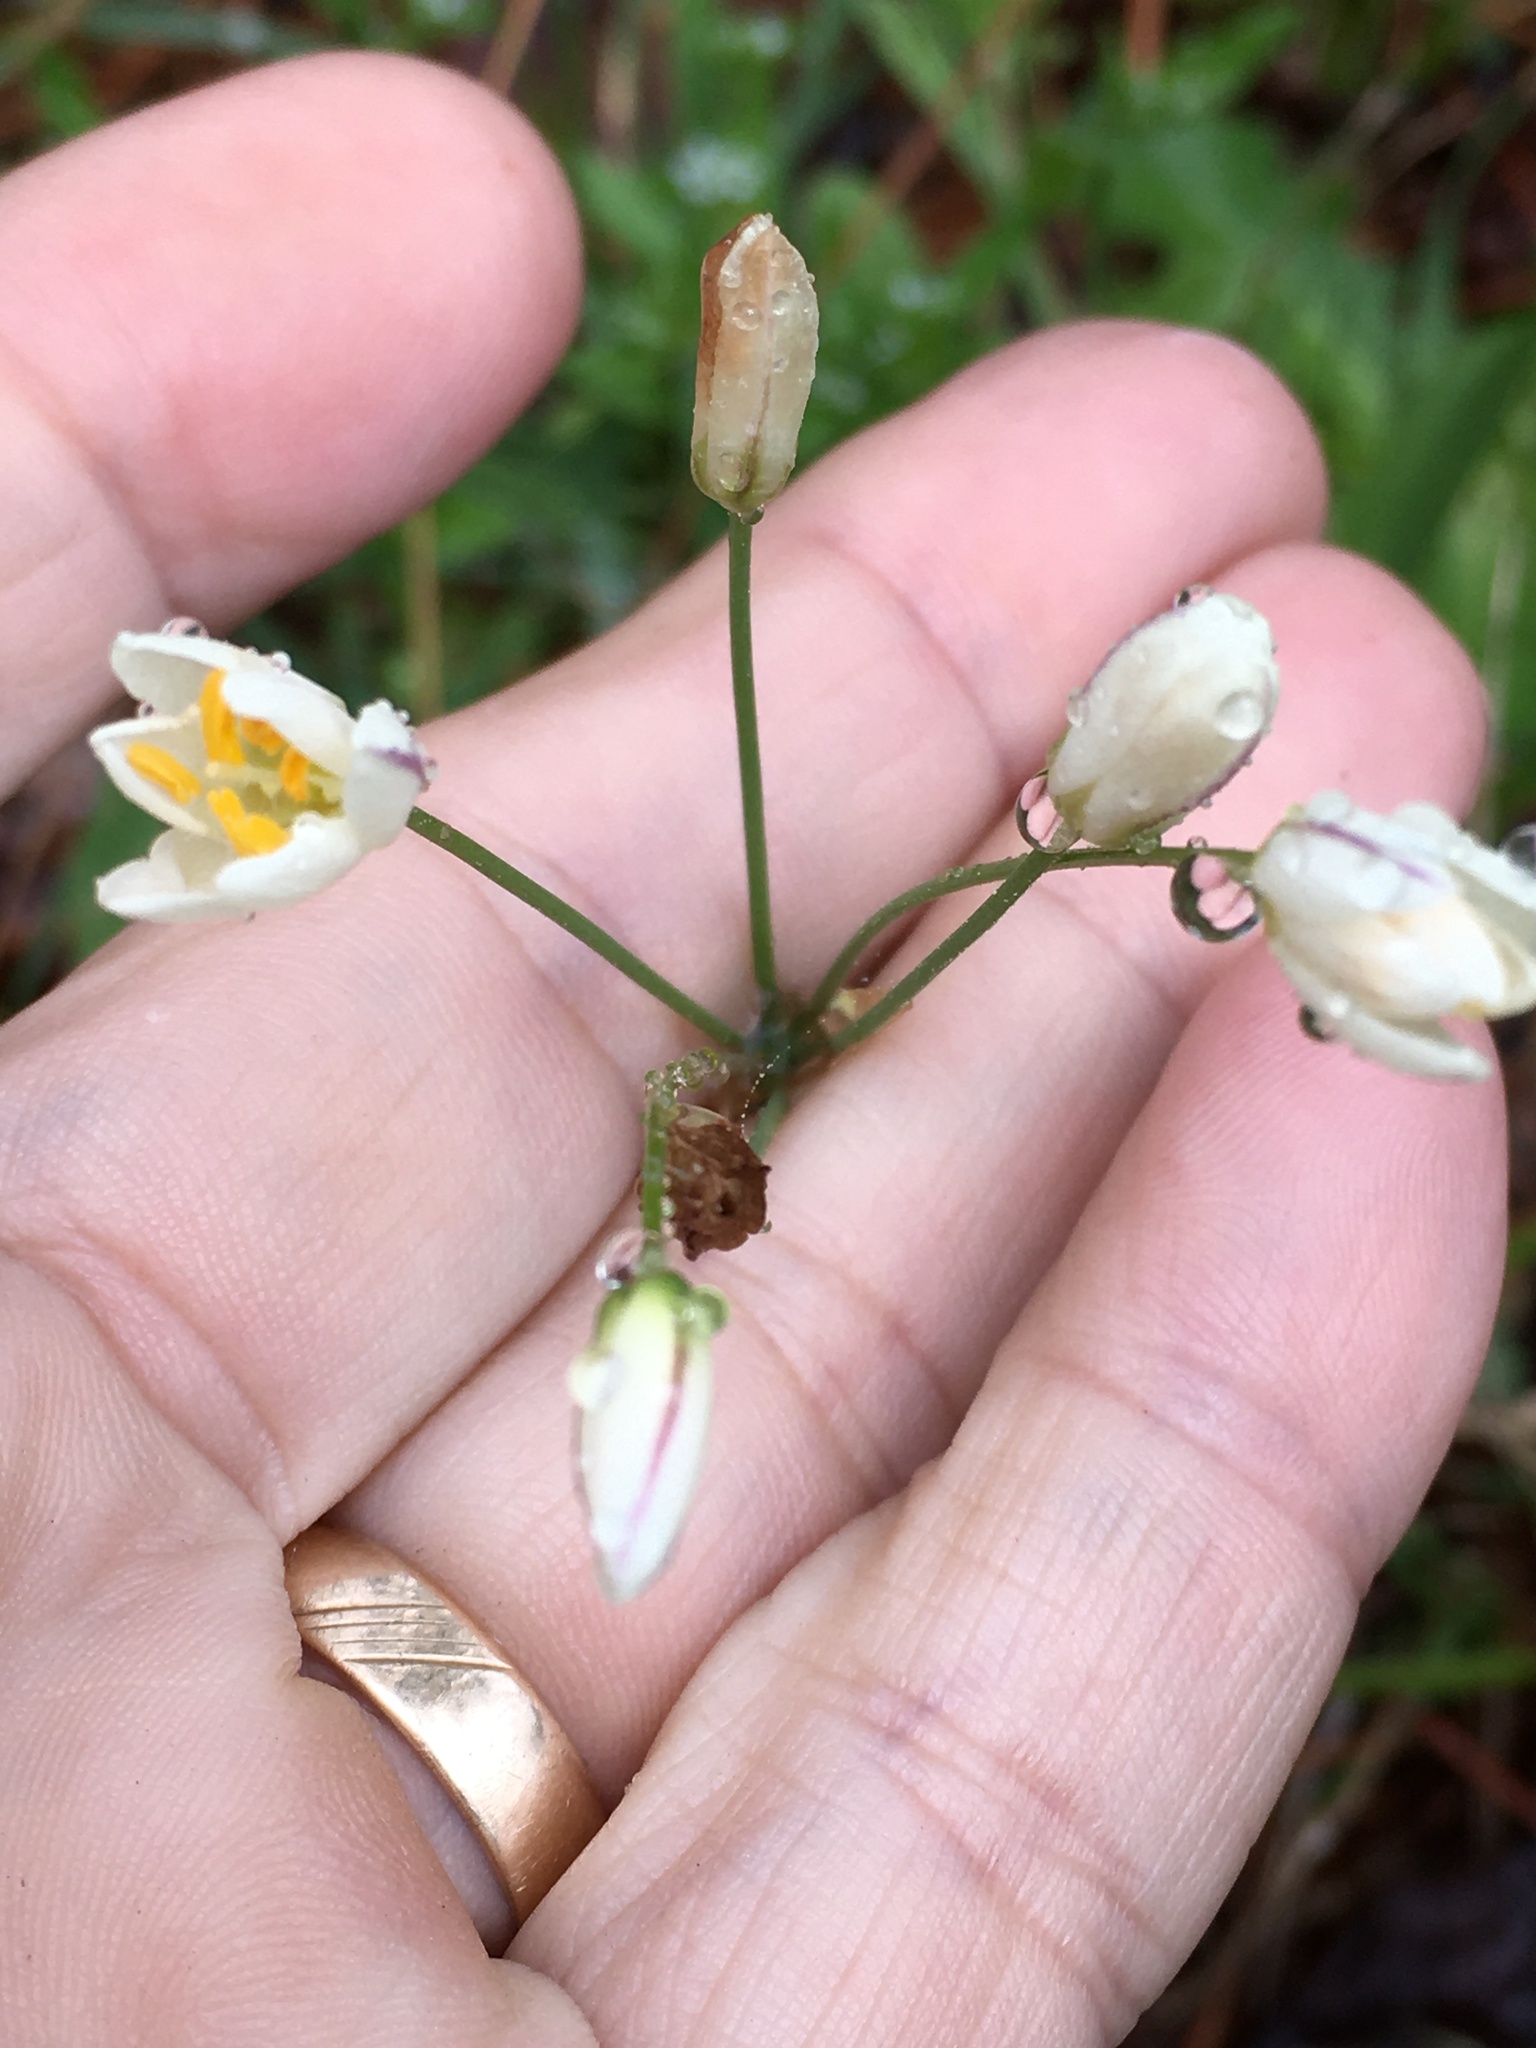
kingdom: Plantae
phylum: Tracheophyta
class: Liliopsida
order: Asparagales
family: Amaryllidaceae
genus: Nothoscordum
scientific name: Nothoscordum bivalve
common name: Crow-poison
